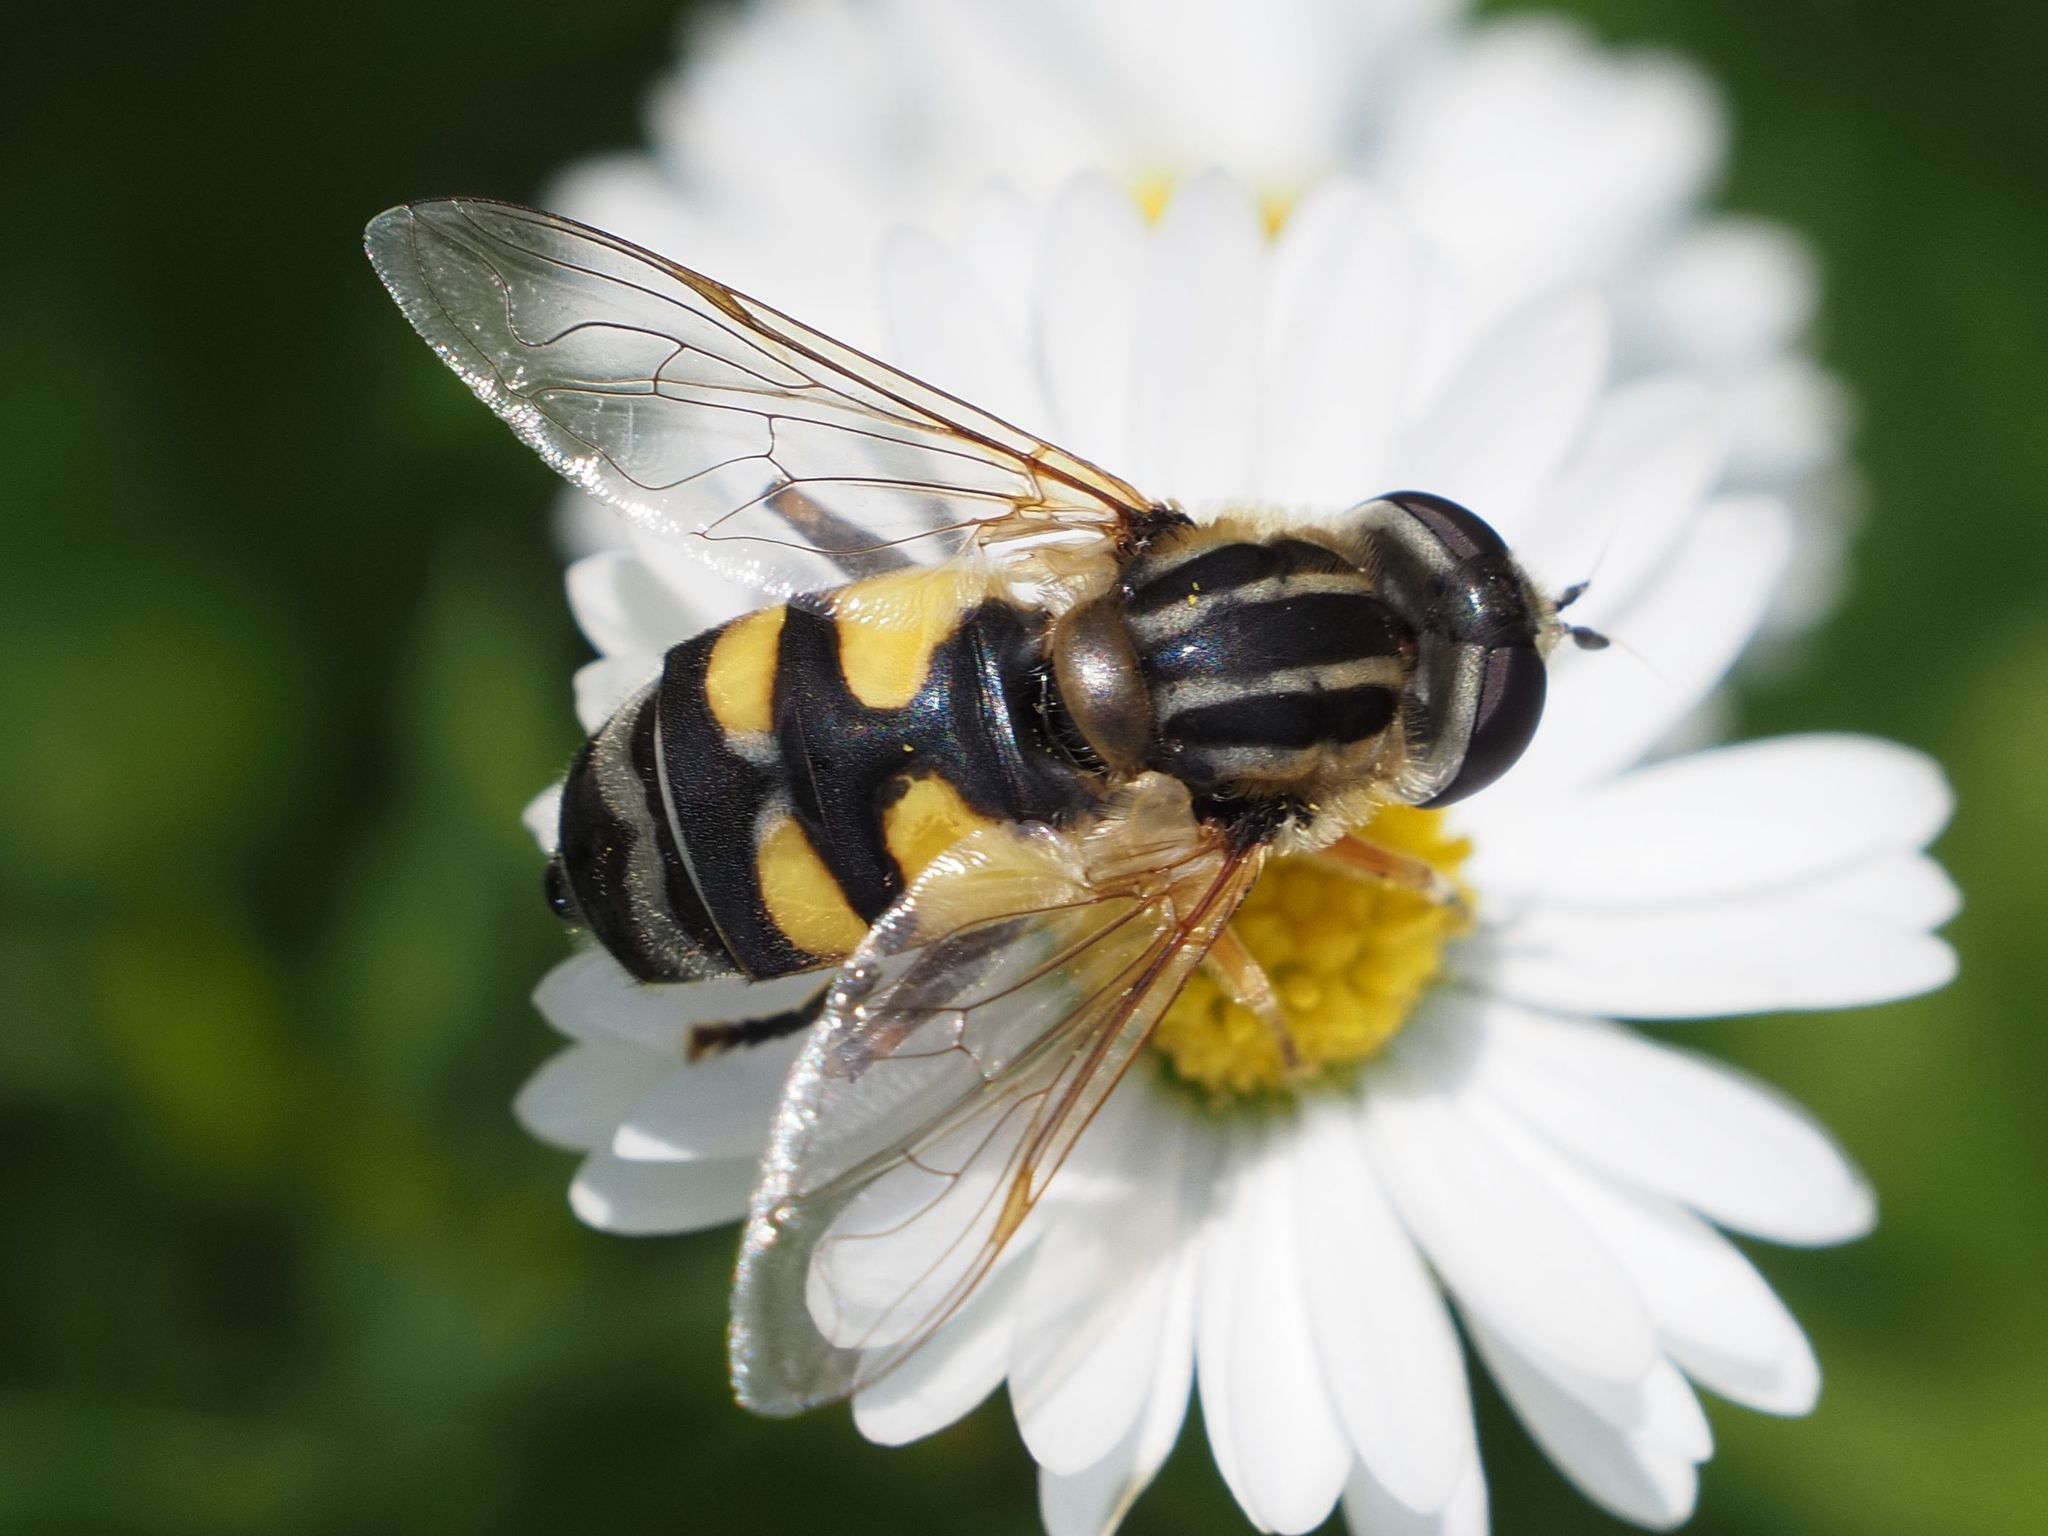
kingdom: Animalia
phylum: Arthropoda
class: Insecta
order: Diptera
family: Syrphidae
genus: Helophilus
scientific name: Helophilus trivittatus
